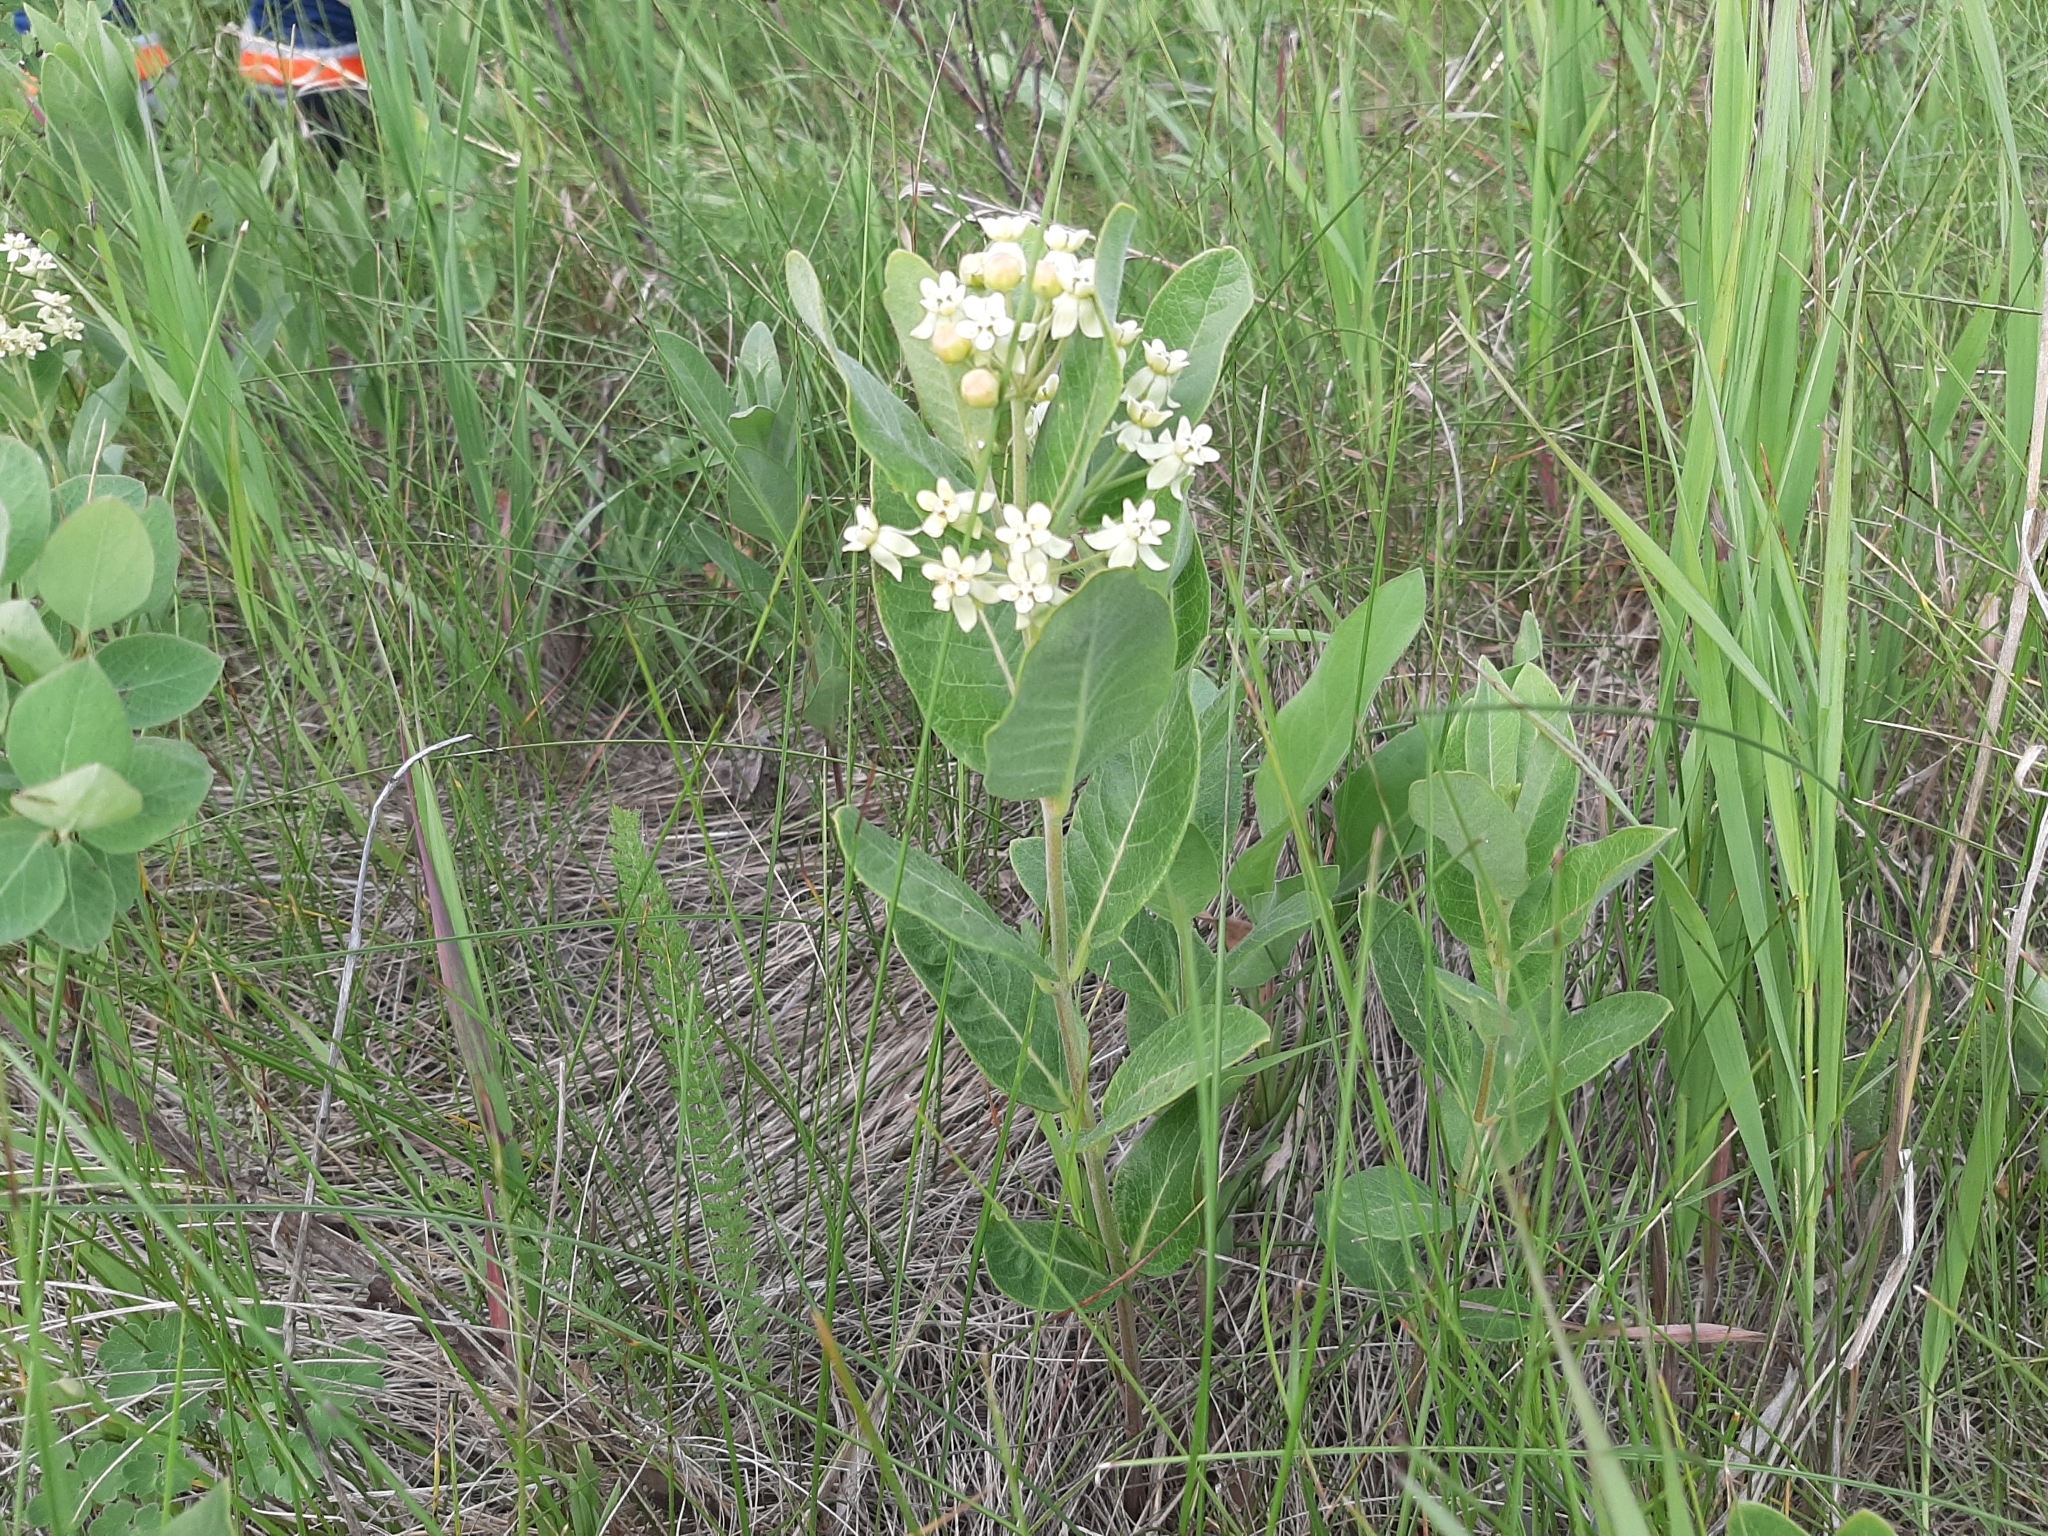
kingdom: Plantae
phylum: Tracheophyta
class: Magnoliopsida
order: Gentianales
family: Apocynaceae
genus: Asclepias
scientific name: Asclepias ovalifolia
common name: Dwarf milkweed
